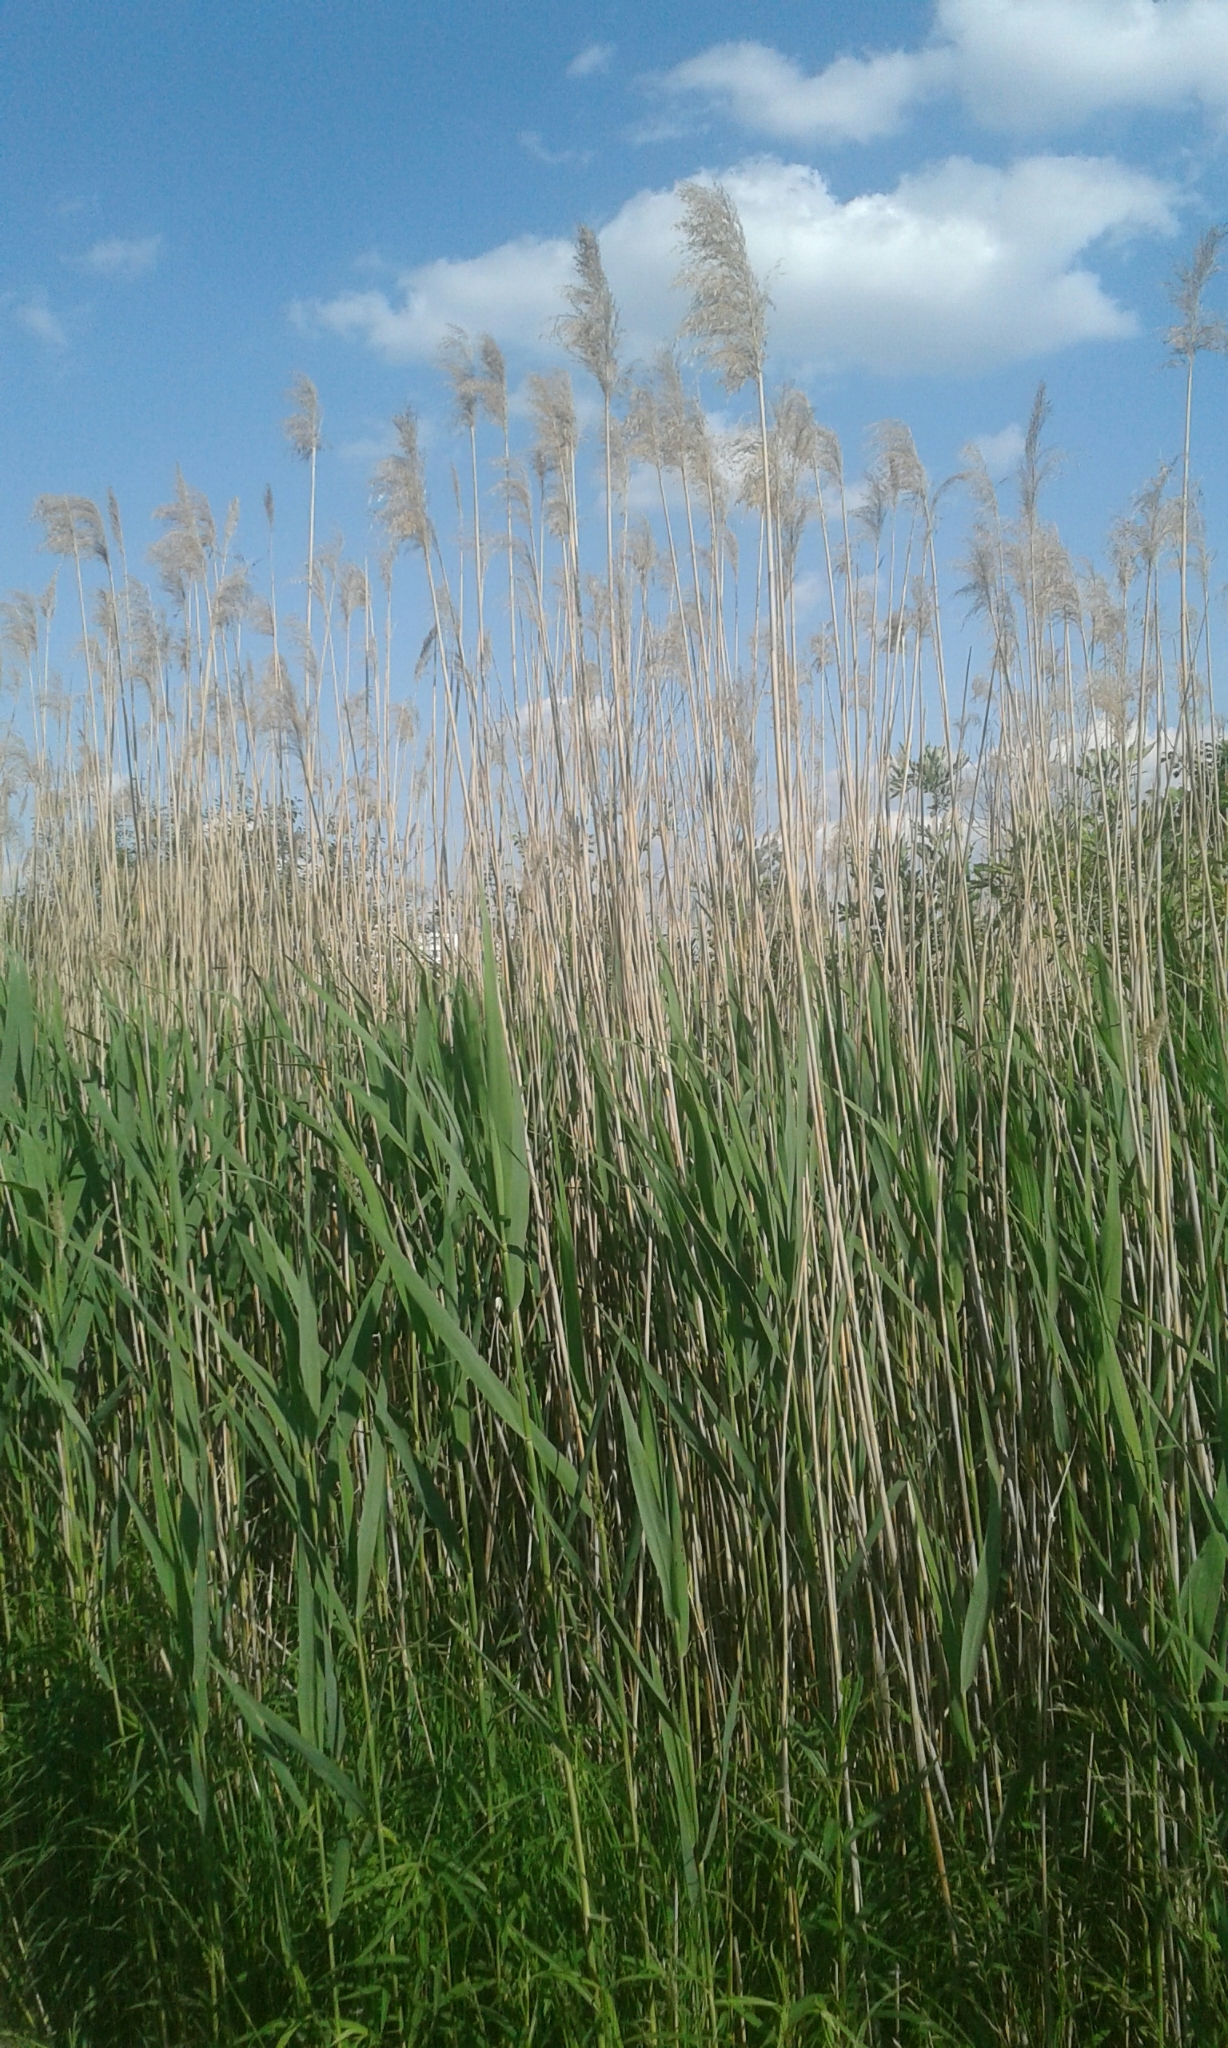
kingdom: Plantae
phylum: Tracheophyta
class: Liliopsida
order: Poales
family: Poaceae
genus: Phragmites
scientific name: Phragmites australis
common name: Common reed
